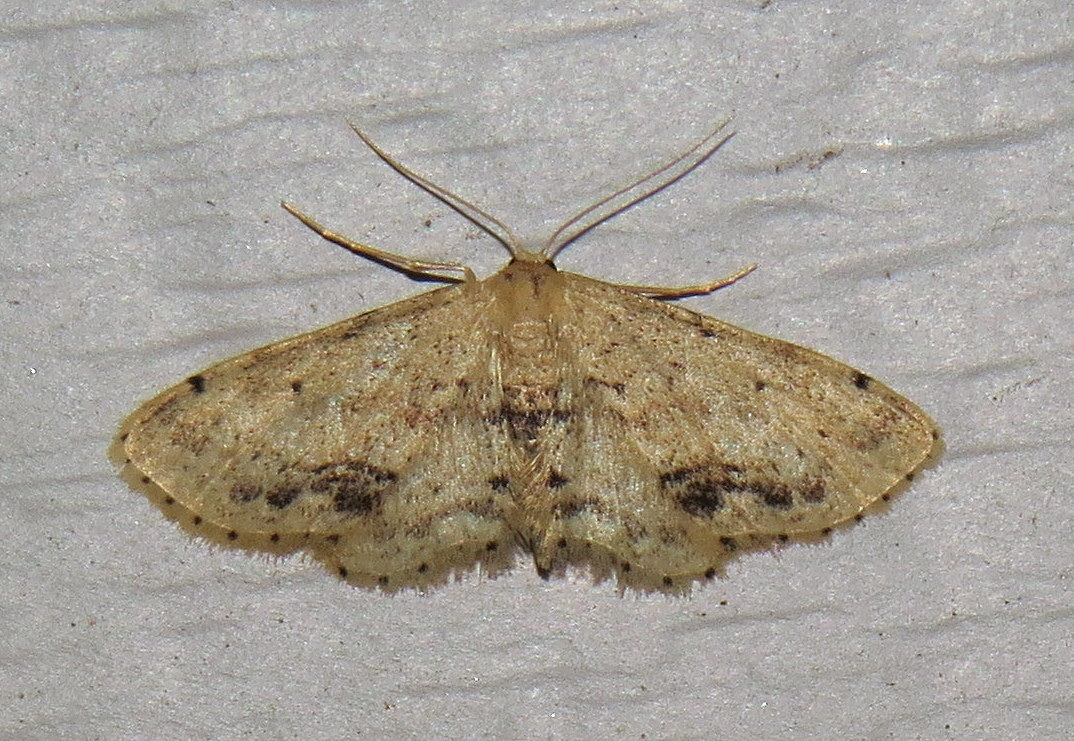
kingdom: Animalia
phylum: Arthropoda
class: Insecta
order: Lepidoptera
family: Geometridae
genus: Idaea
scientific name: Idaea dimidiata
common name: Single-dotted wave
